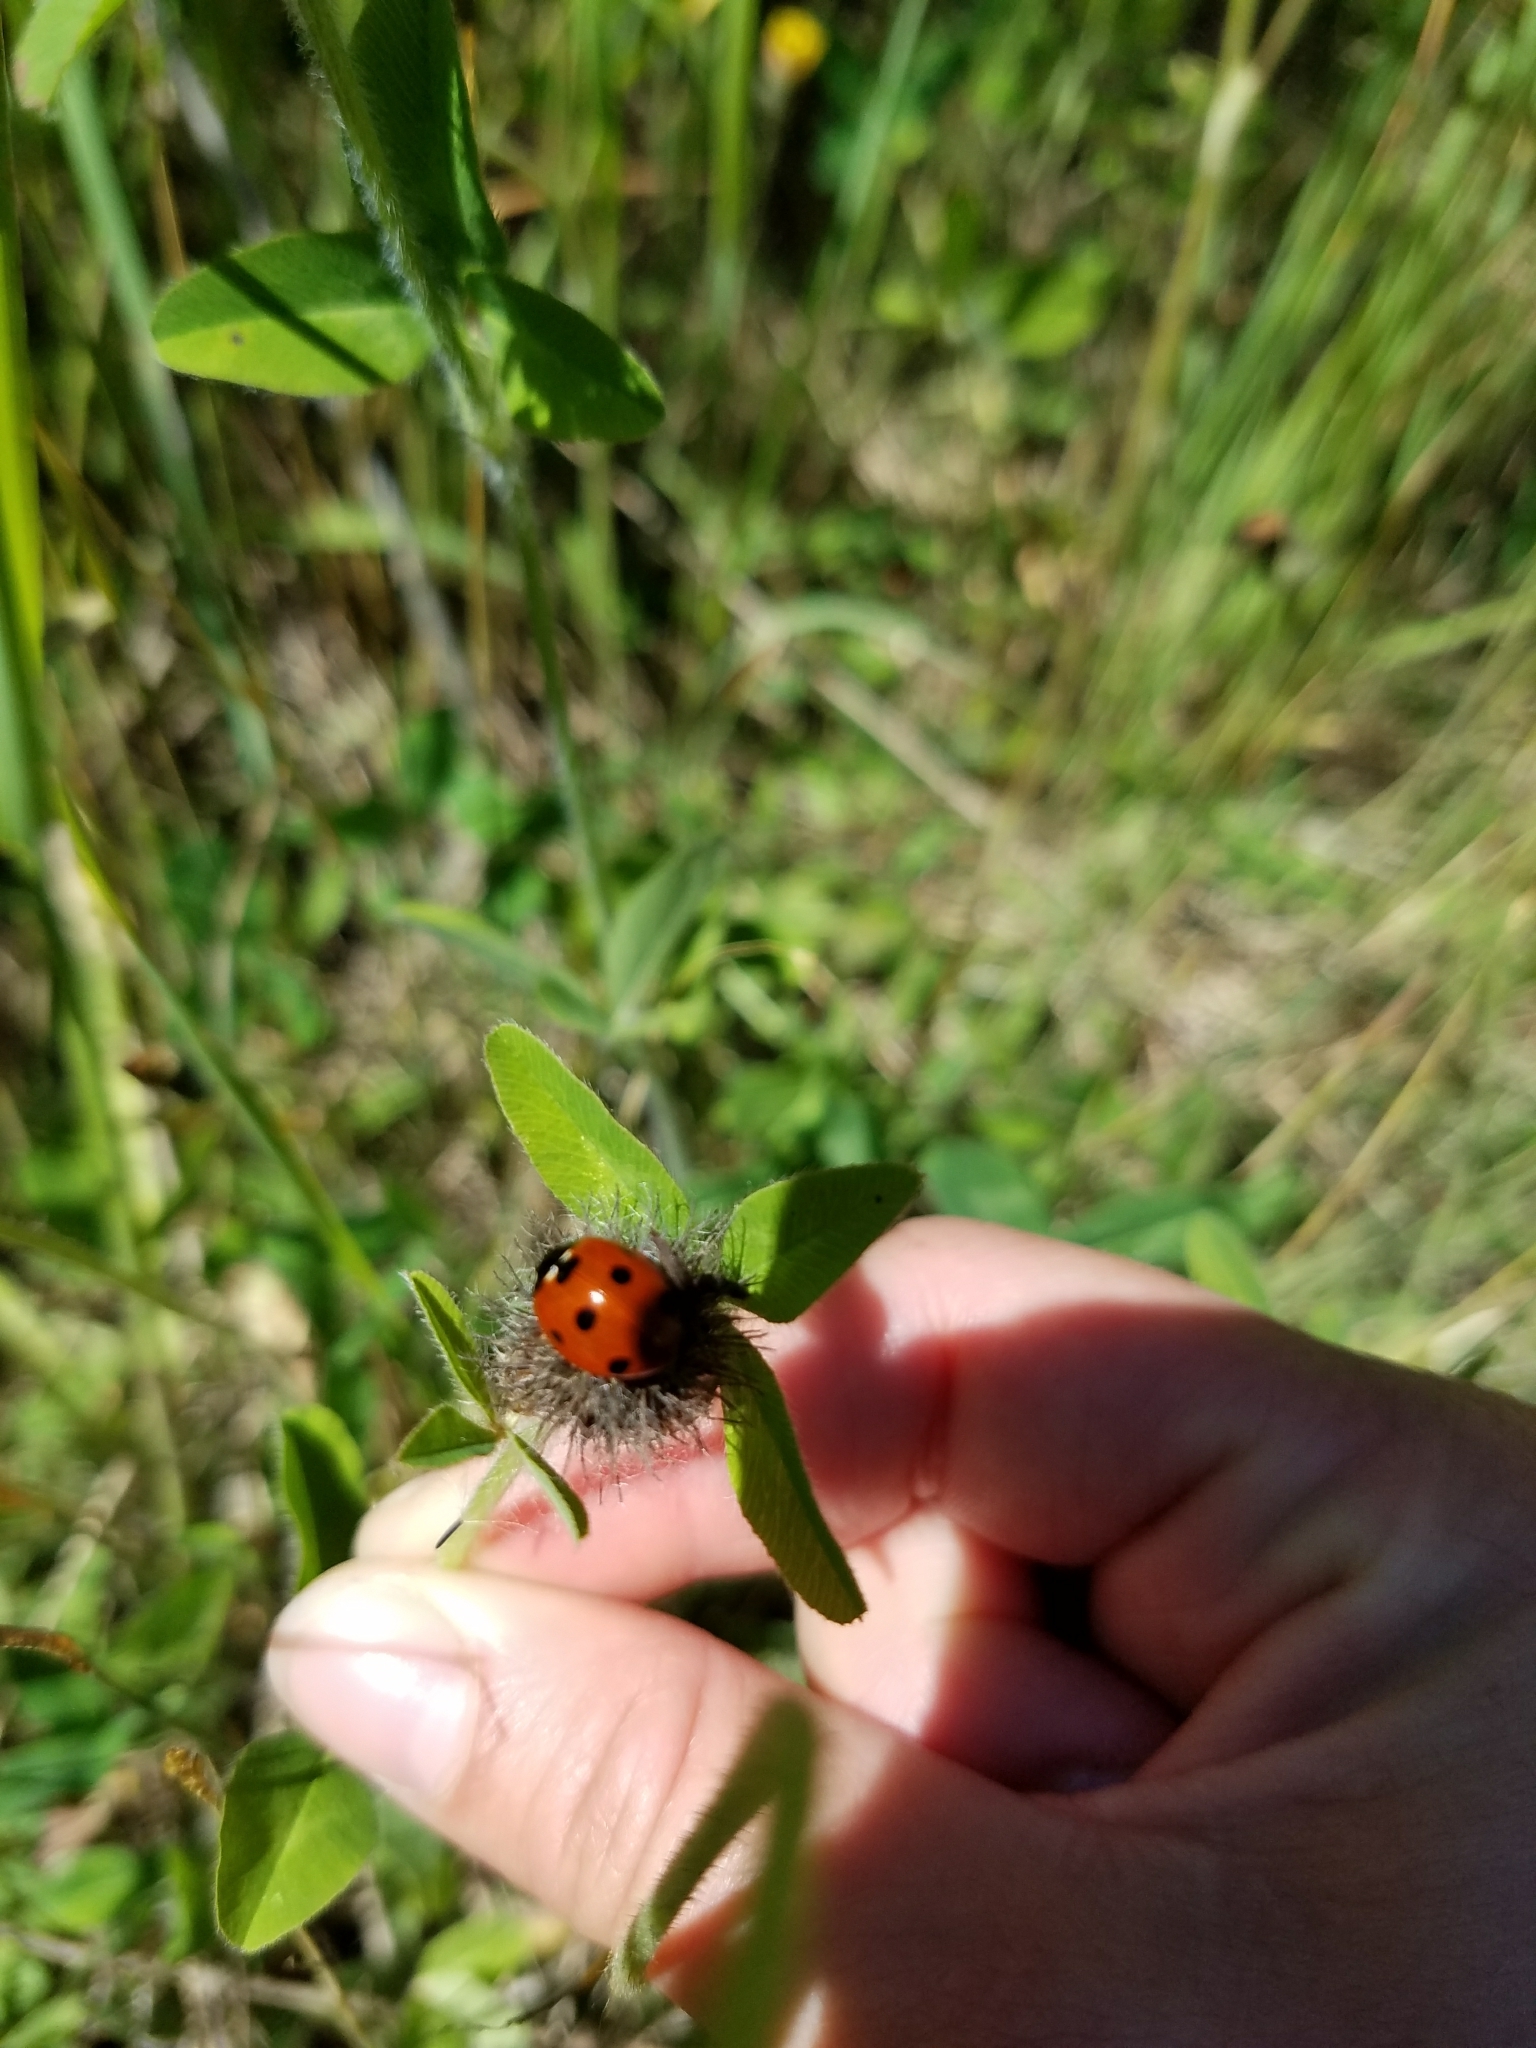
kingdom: Animalia
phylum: Arthropoda
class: Insecta
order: Coleoptera
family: Coccinellidae
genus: Coccinella
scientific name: Coccinella septempunctata
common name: Sevenspotted lady beetle
